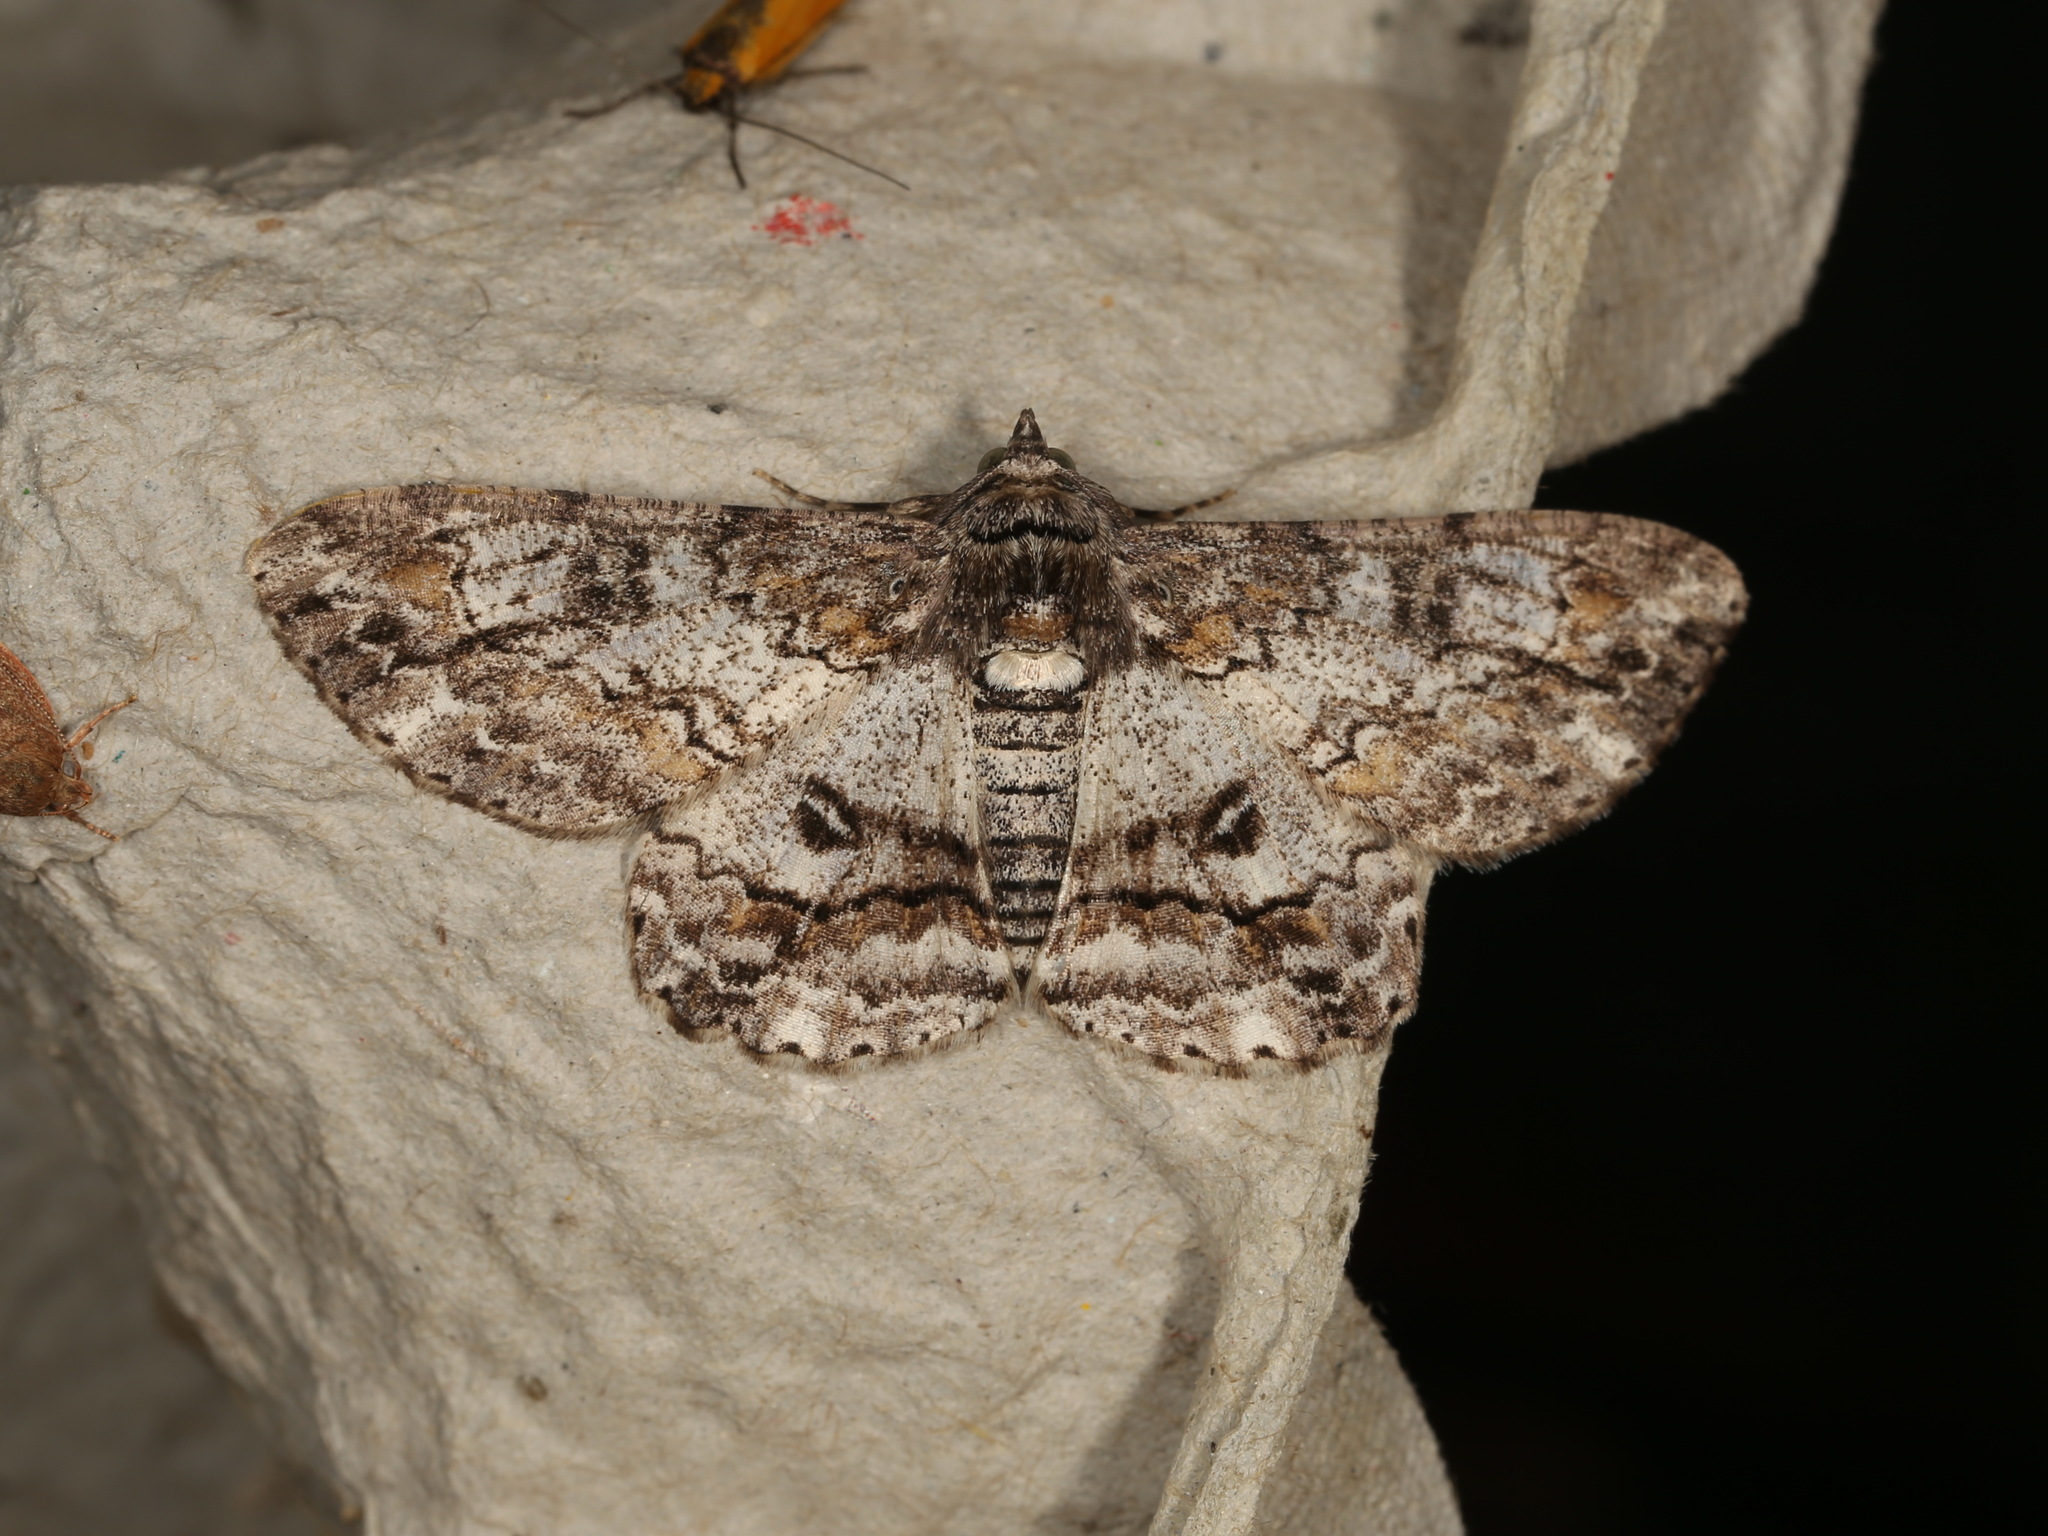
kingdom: Animalia
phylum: Arthropoda
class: Insecta
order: Lepidoptera
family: Geometridae
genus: Cleora
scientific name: Cleora injectaria
